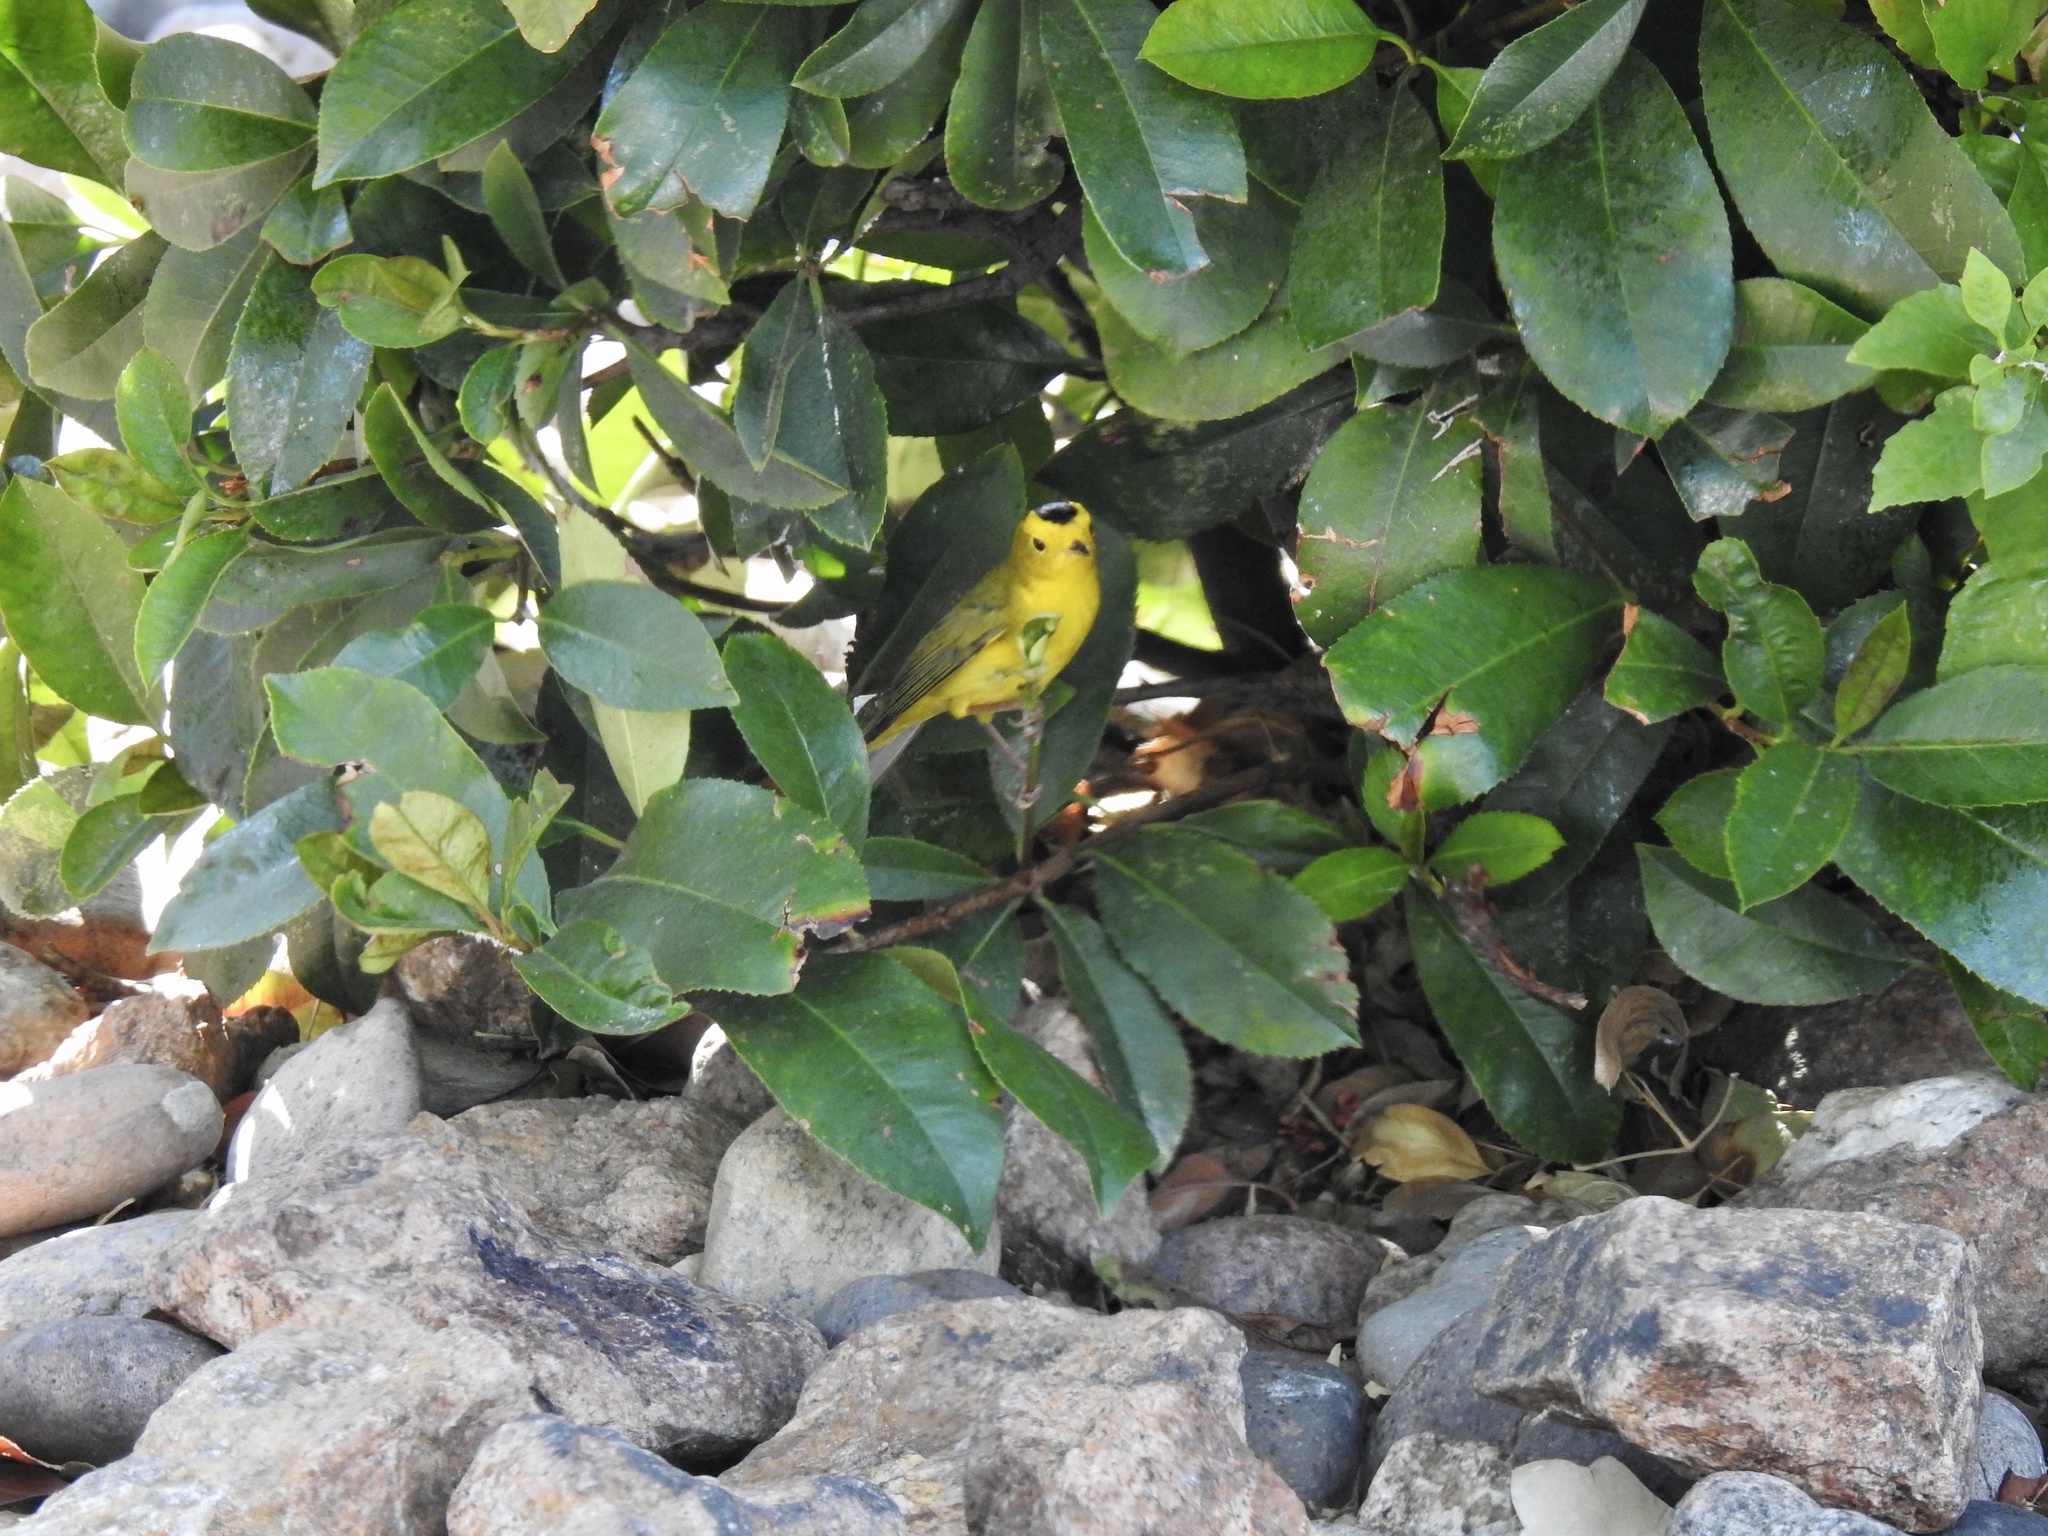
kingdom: Animalia
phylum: Chordata
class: Aves
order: Passeriformes
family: Parulidae
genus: Cardellina
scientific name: Cardellina pusilla
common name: Wilson's warbler
